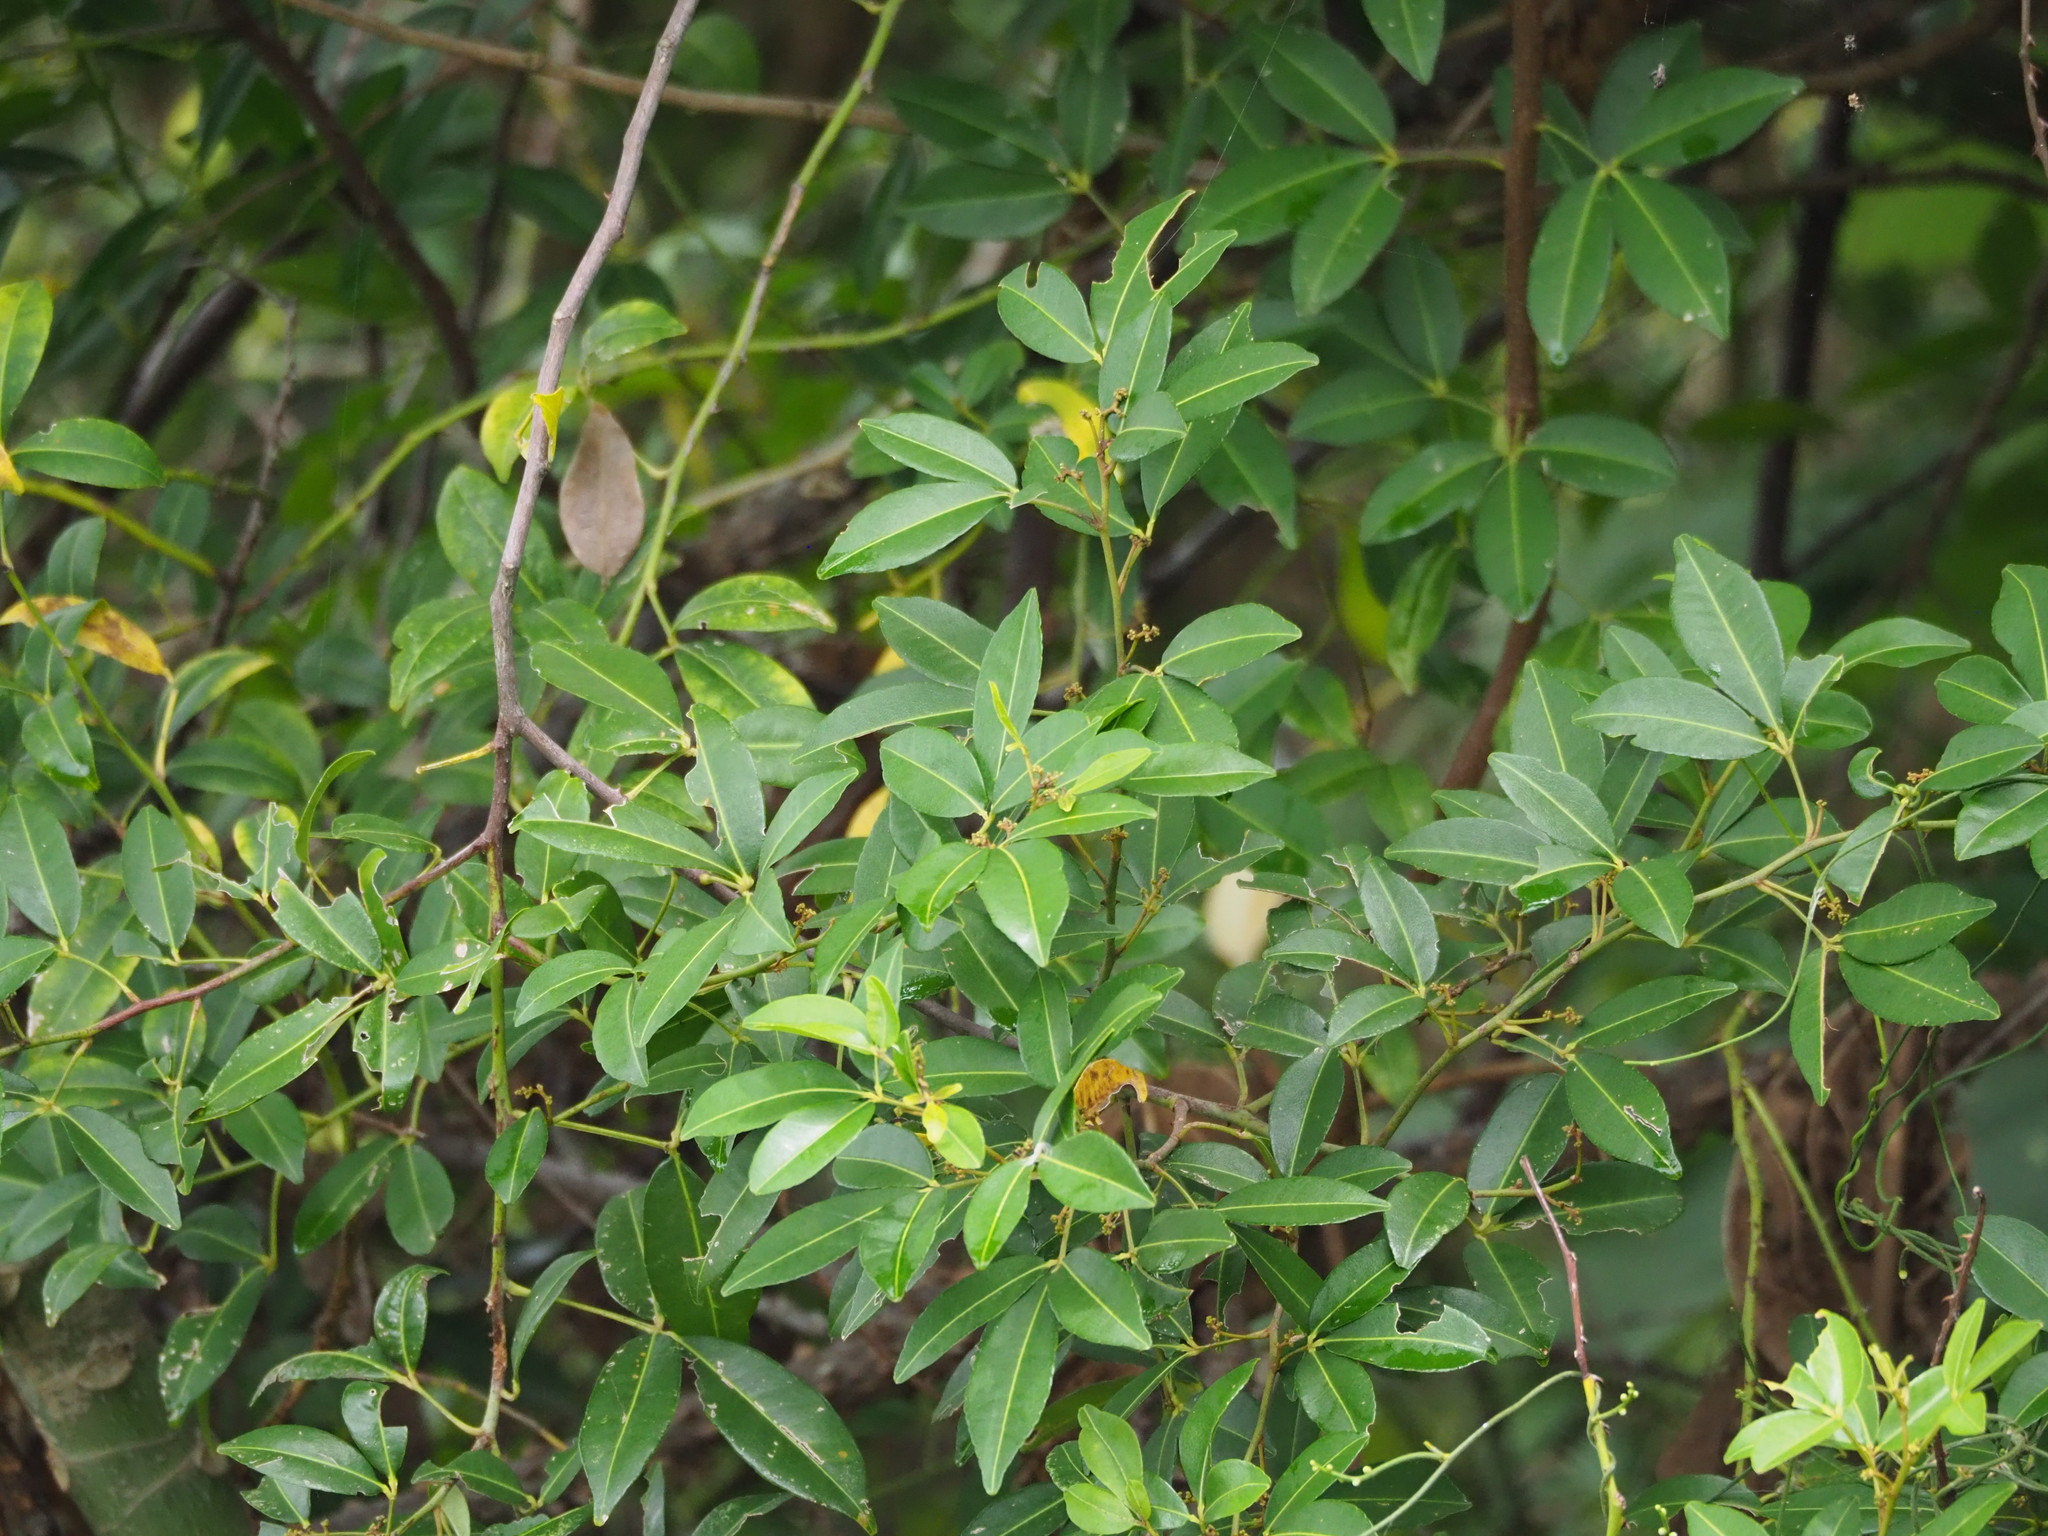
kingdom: Plantae
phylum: Tracheophyta
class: Magnoliopsida
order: Sapindales
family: Rutaceae
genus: Zanthoxylum
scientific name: Zanthoxylum asiaticum
